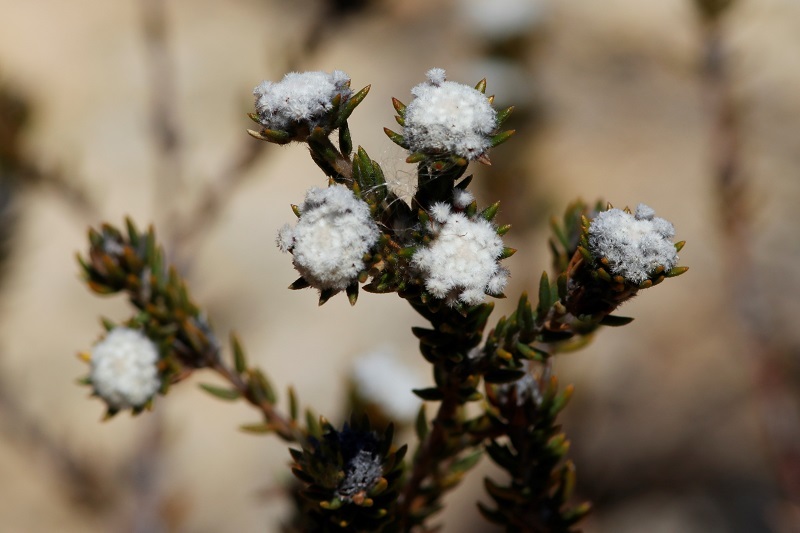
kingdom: Plantae
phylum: Tracheophyta
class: Magnoliopsida
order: Rosales
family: Rhamnaceae
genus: Phylica
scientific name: Phylica ericoides
